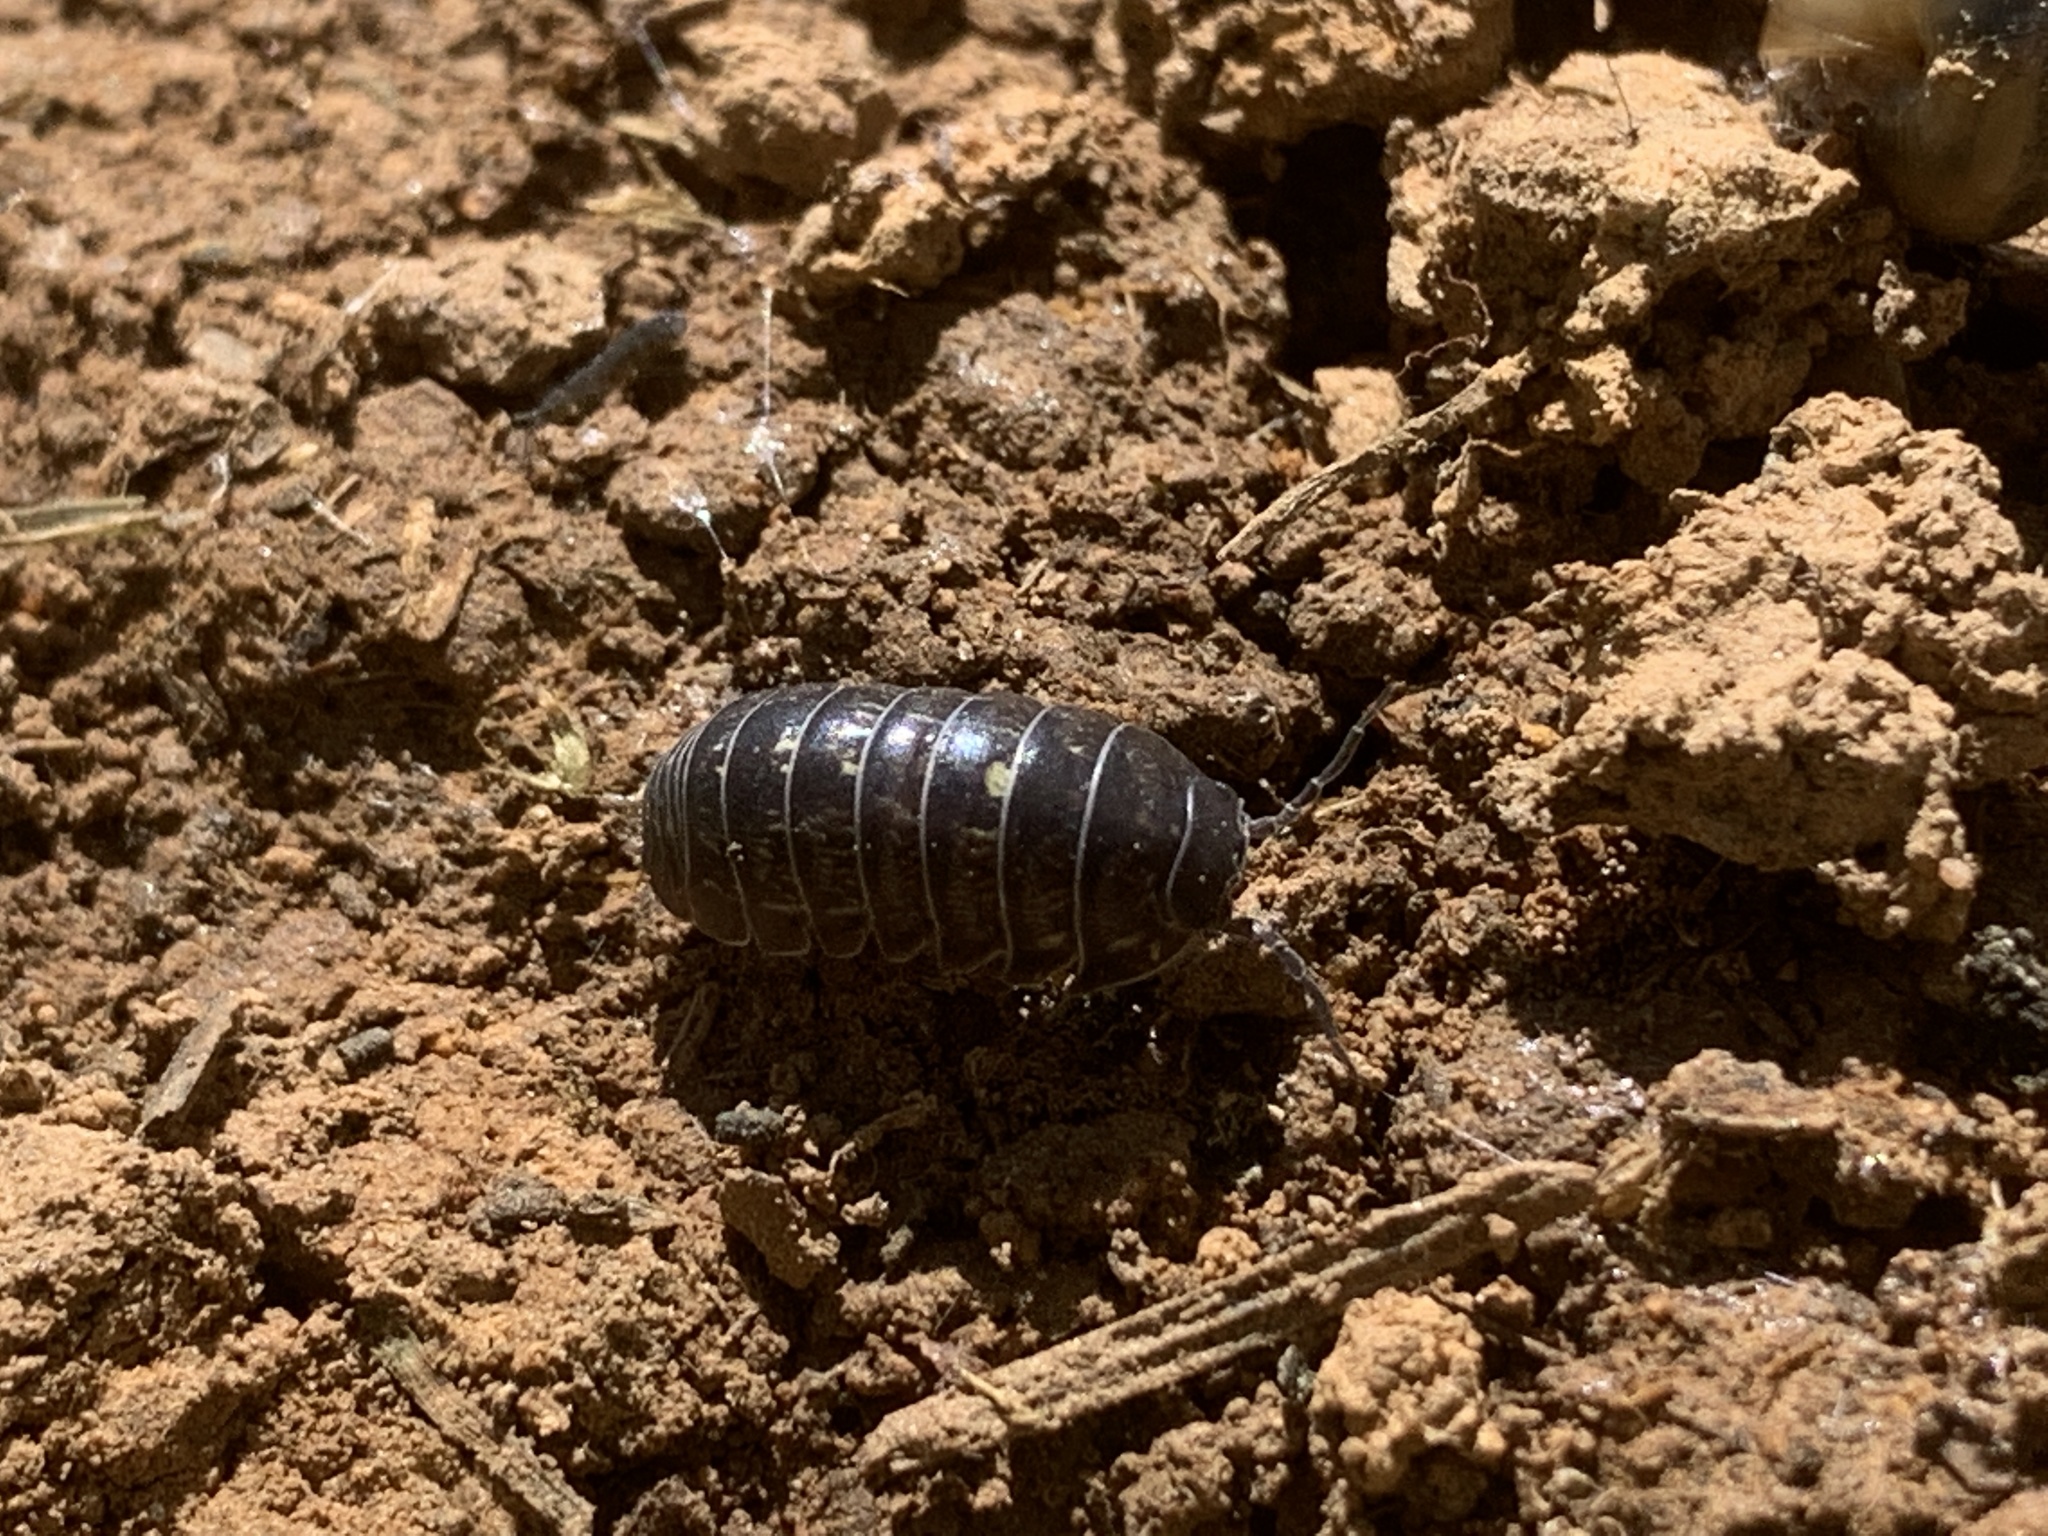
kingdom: Animalia
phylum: Arthropoda
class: Malacostraca
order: Isopoda
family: Armadillidiidae
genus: Armadillidium
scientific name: Armadillidium vulgare
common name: Common pill woodlouse
